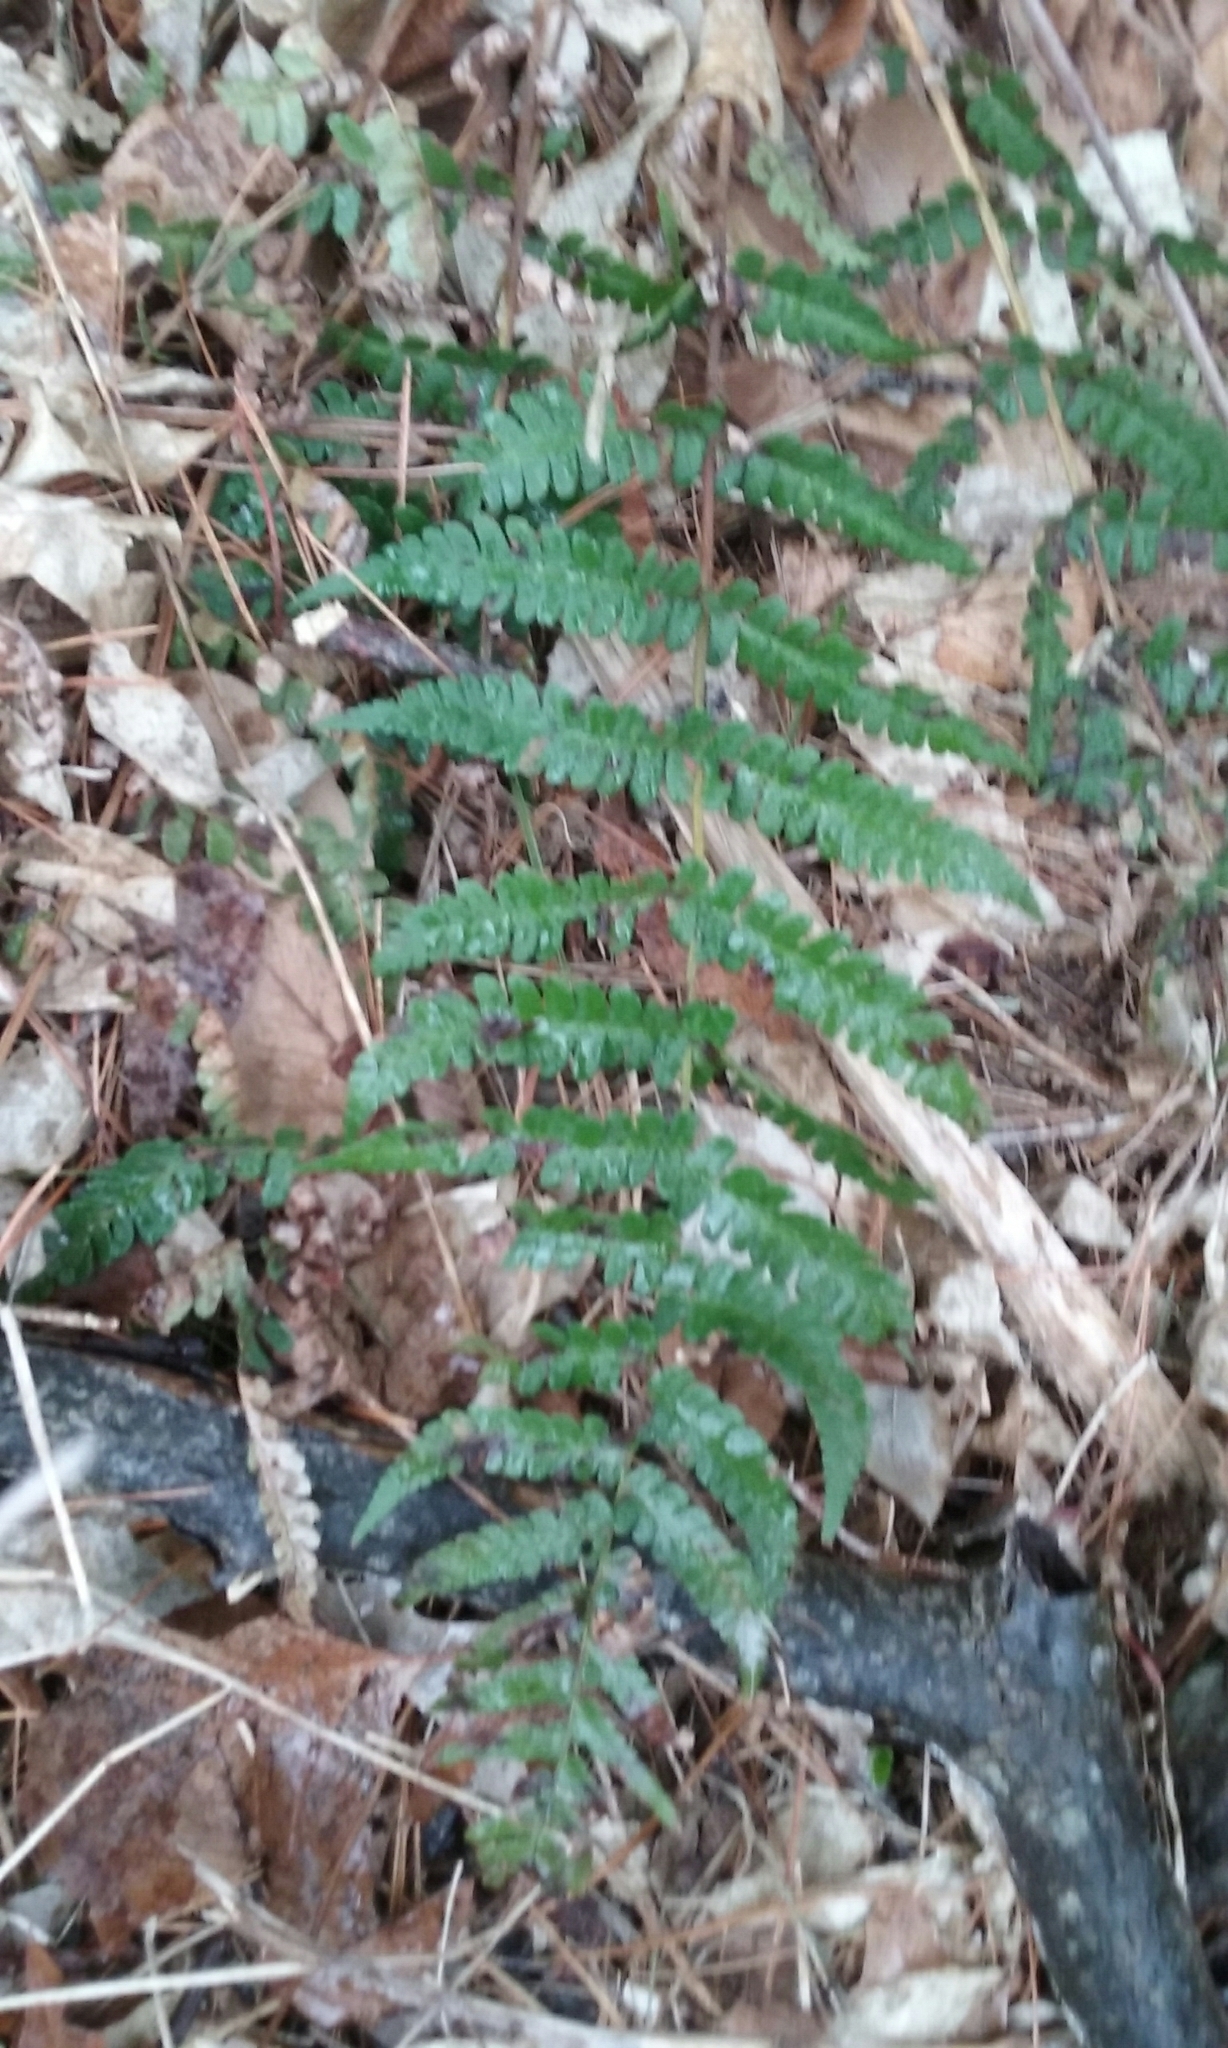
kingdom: Plantae
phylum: Tracheophyta
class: Polypodiopsida
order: Polypodiales
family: Dryopteridaceae
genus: Dryopteris
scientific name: Dryopteris marginalis
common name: Marginal wood fern
